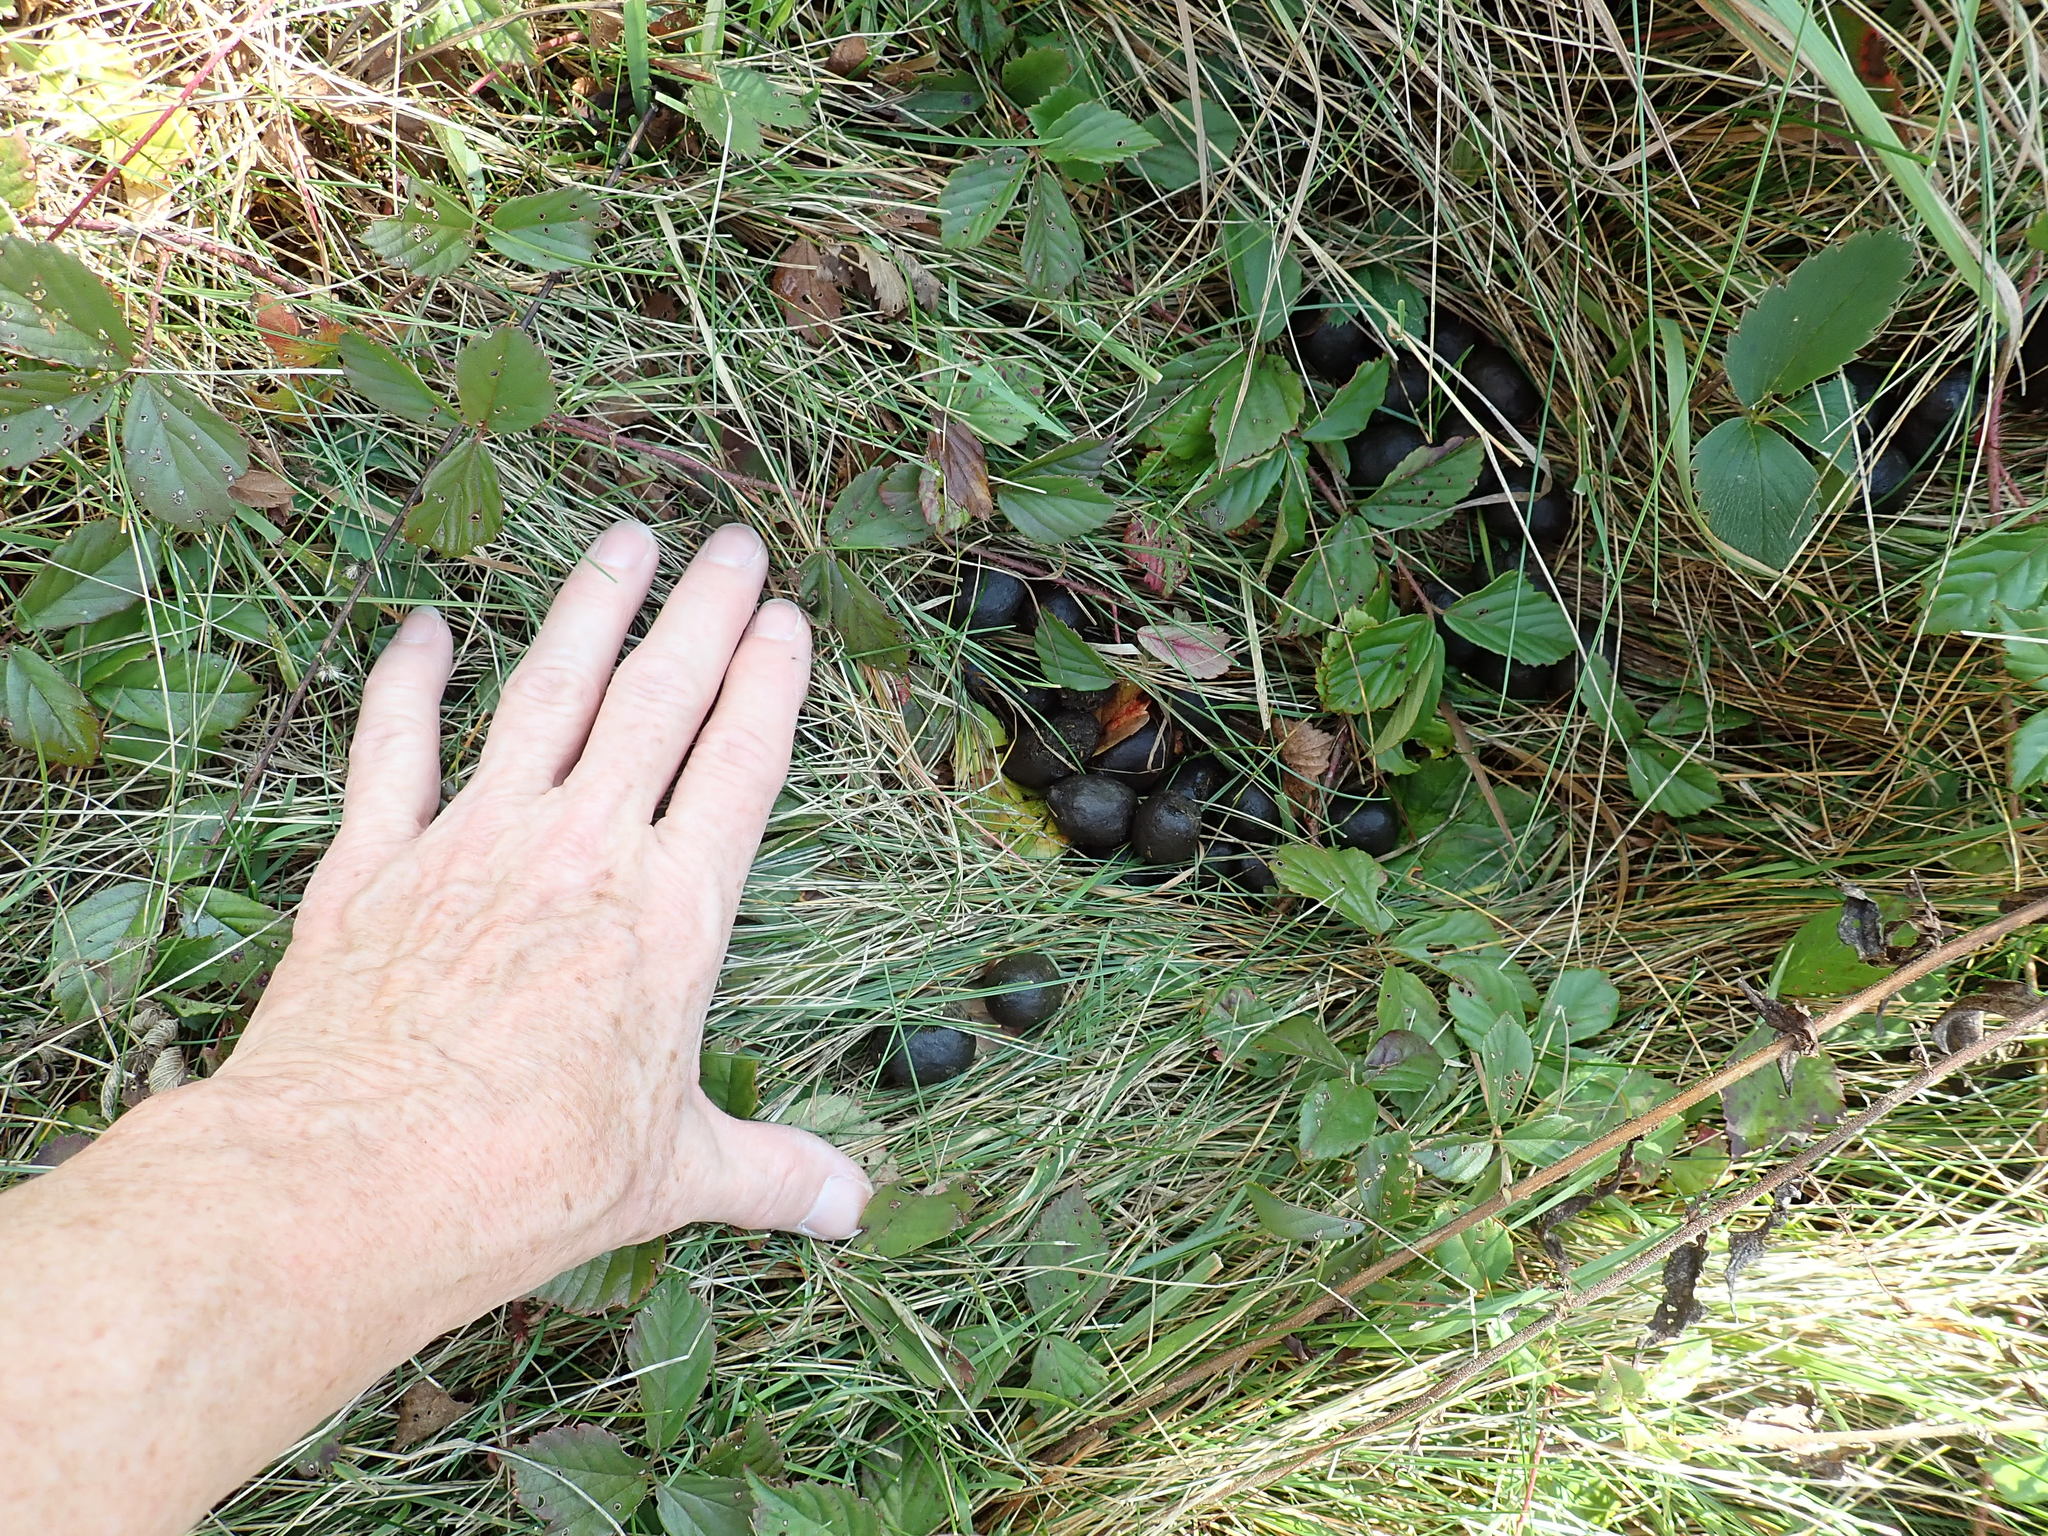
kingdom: Animalia
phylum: Chordata
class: Mammalia
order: Artiodactyla
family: Cervidae
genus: Alces
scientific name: Alces alces
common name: Moose
